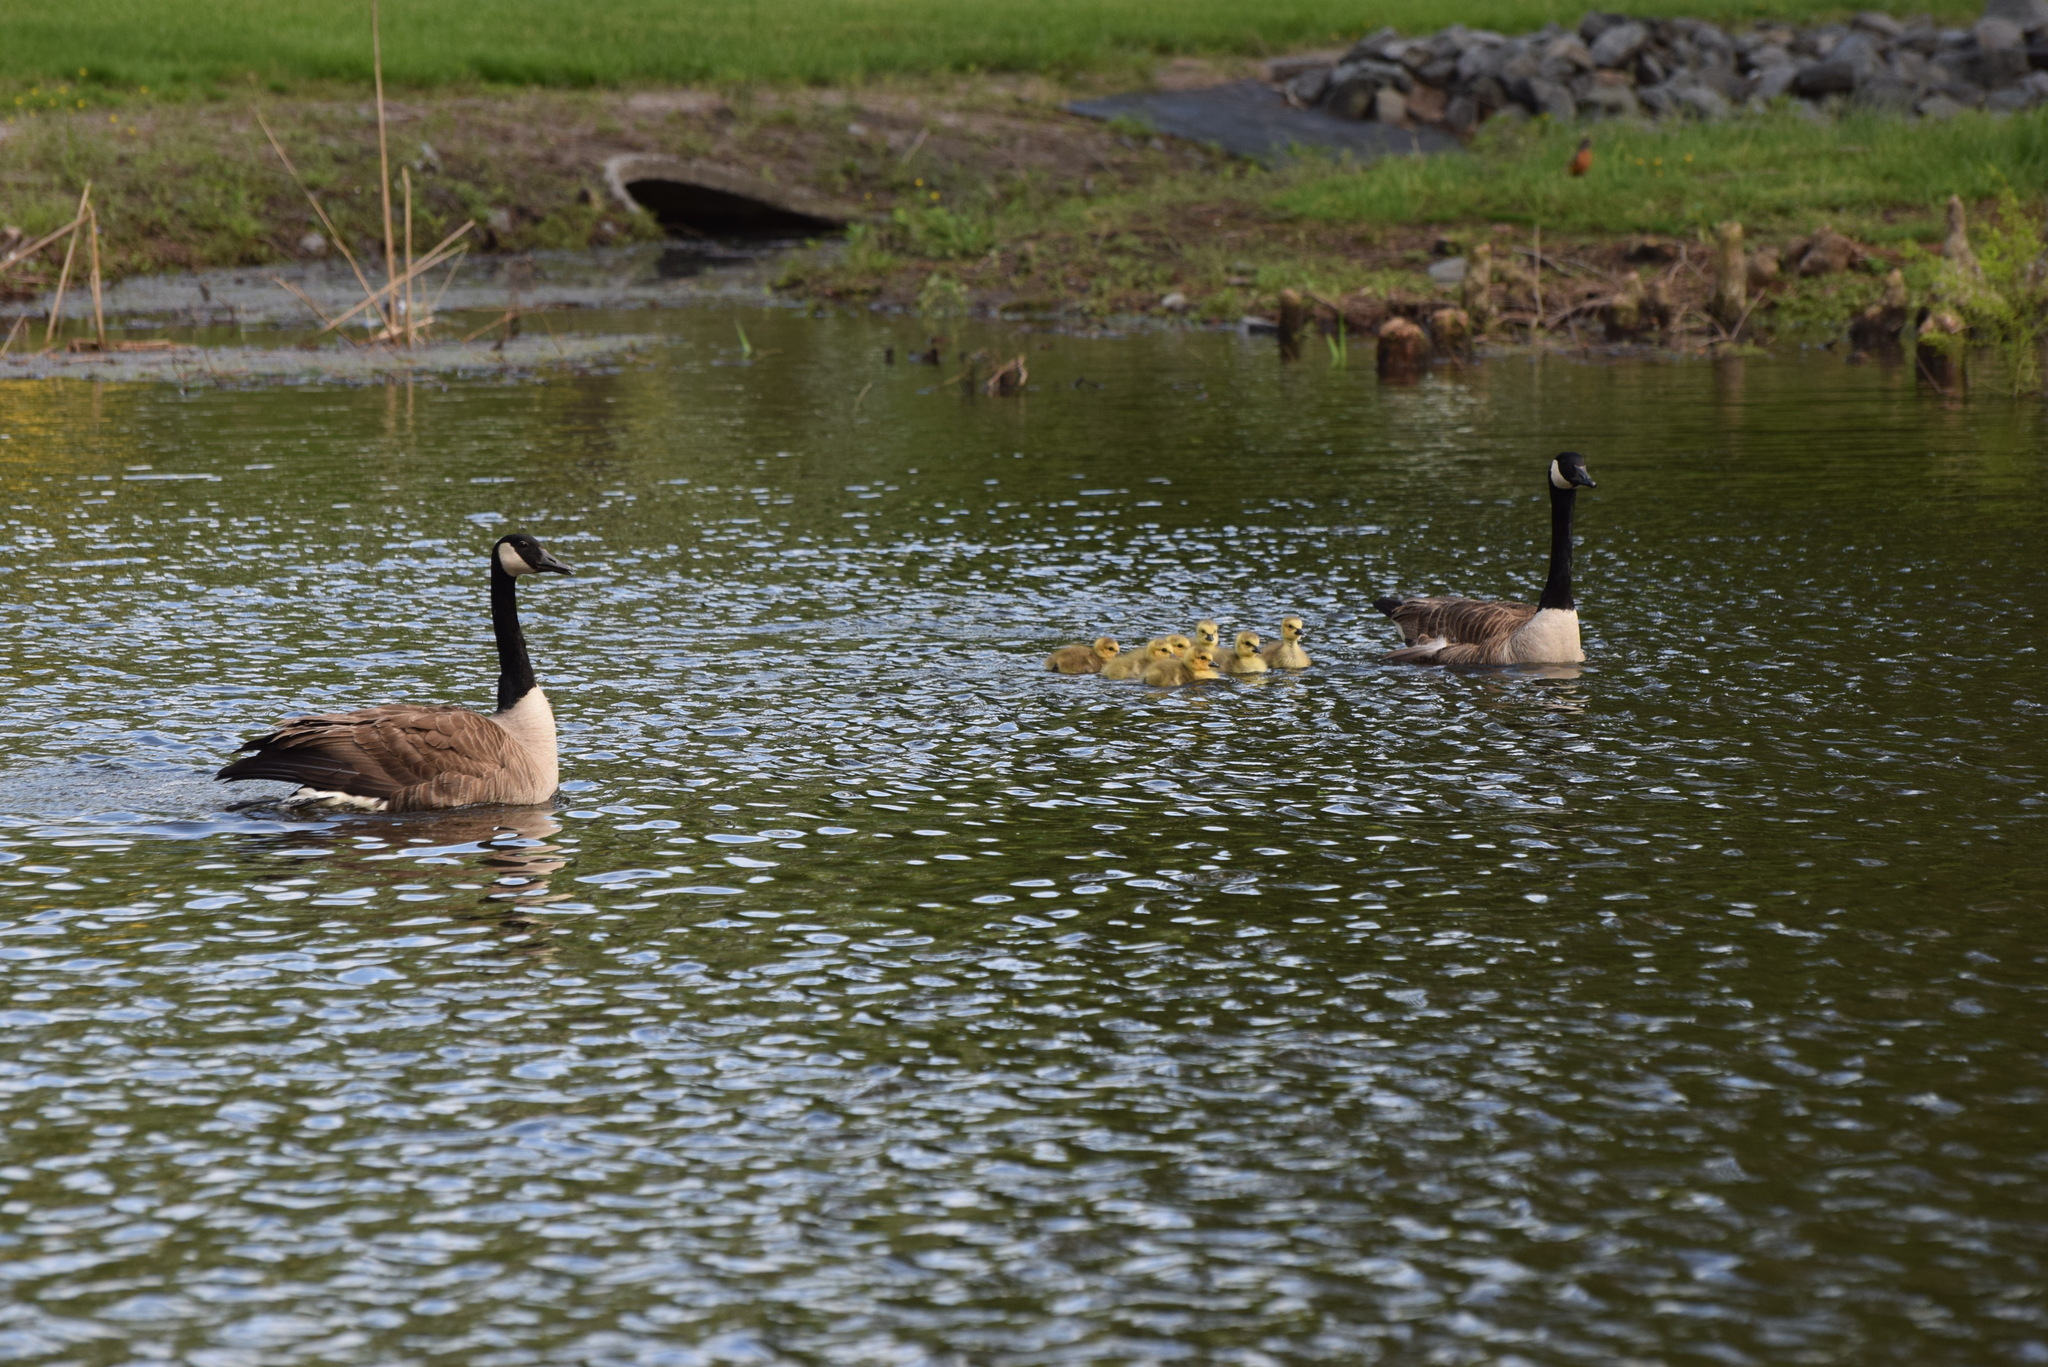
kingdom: Animalia
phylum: Chordata
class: Aves
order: Anseriformes
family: Anatidae
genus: Branta
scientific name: Branta canadensis
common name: Canada goose
